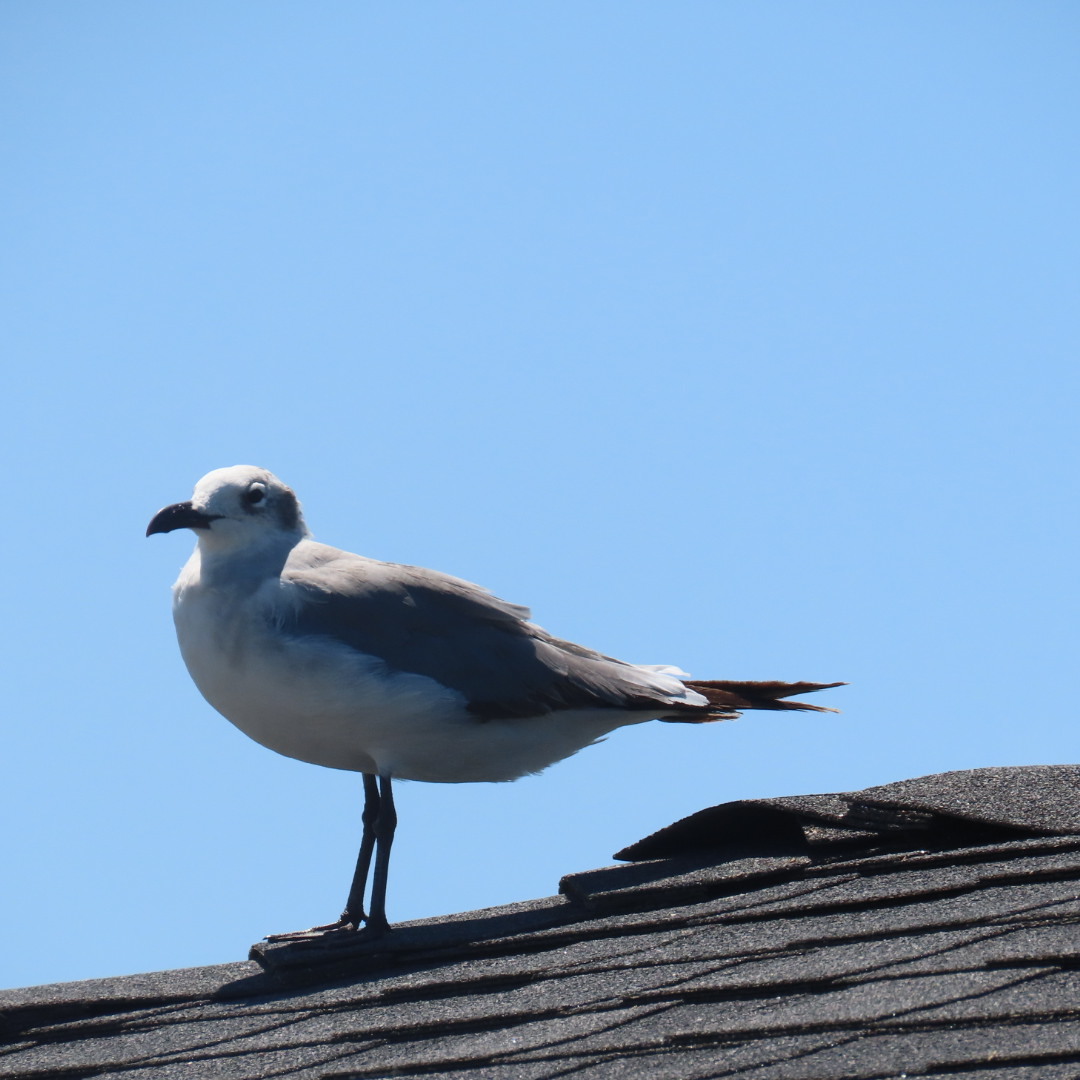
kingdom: Animalia
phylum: Chordata
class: Aves
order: Charadriiformes
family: Laridae
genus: Leucophaeus
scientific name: Leucophaeus atricilla
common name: Laughing gull
